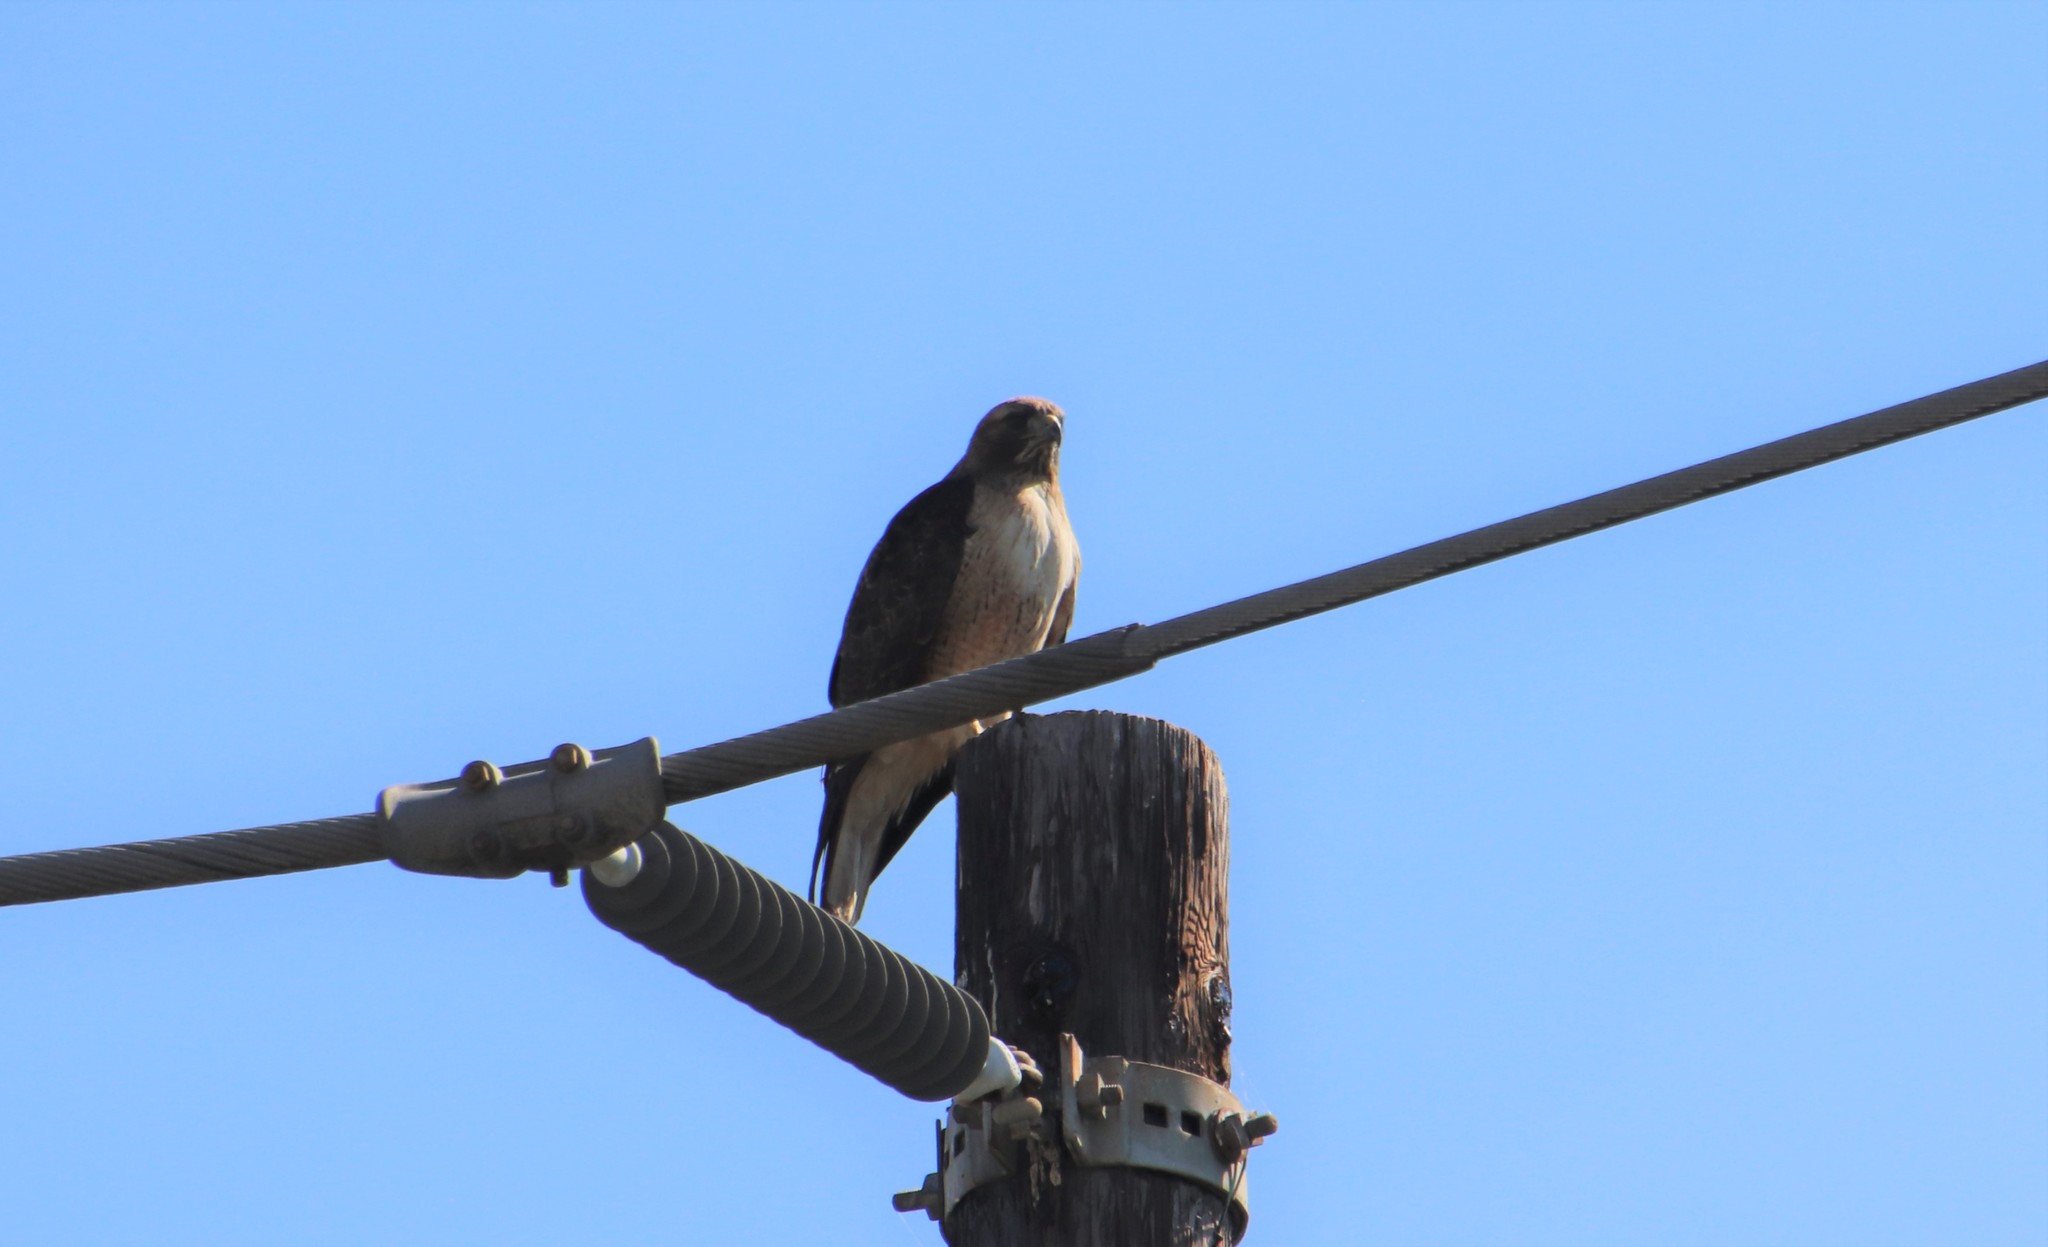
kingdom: Animalia
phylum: Chordata
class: Aves
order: Accipitriformes
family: Accipitridae
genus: Buteo
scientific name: Buteo jamaicensis
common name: Red-tailed hawk
